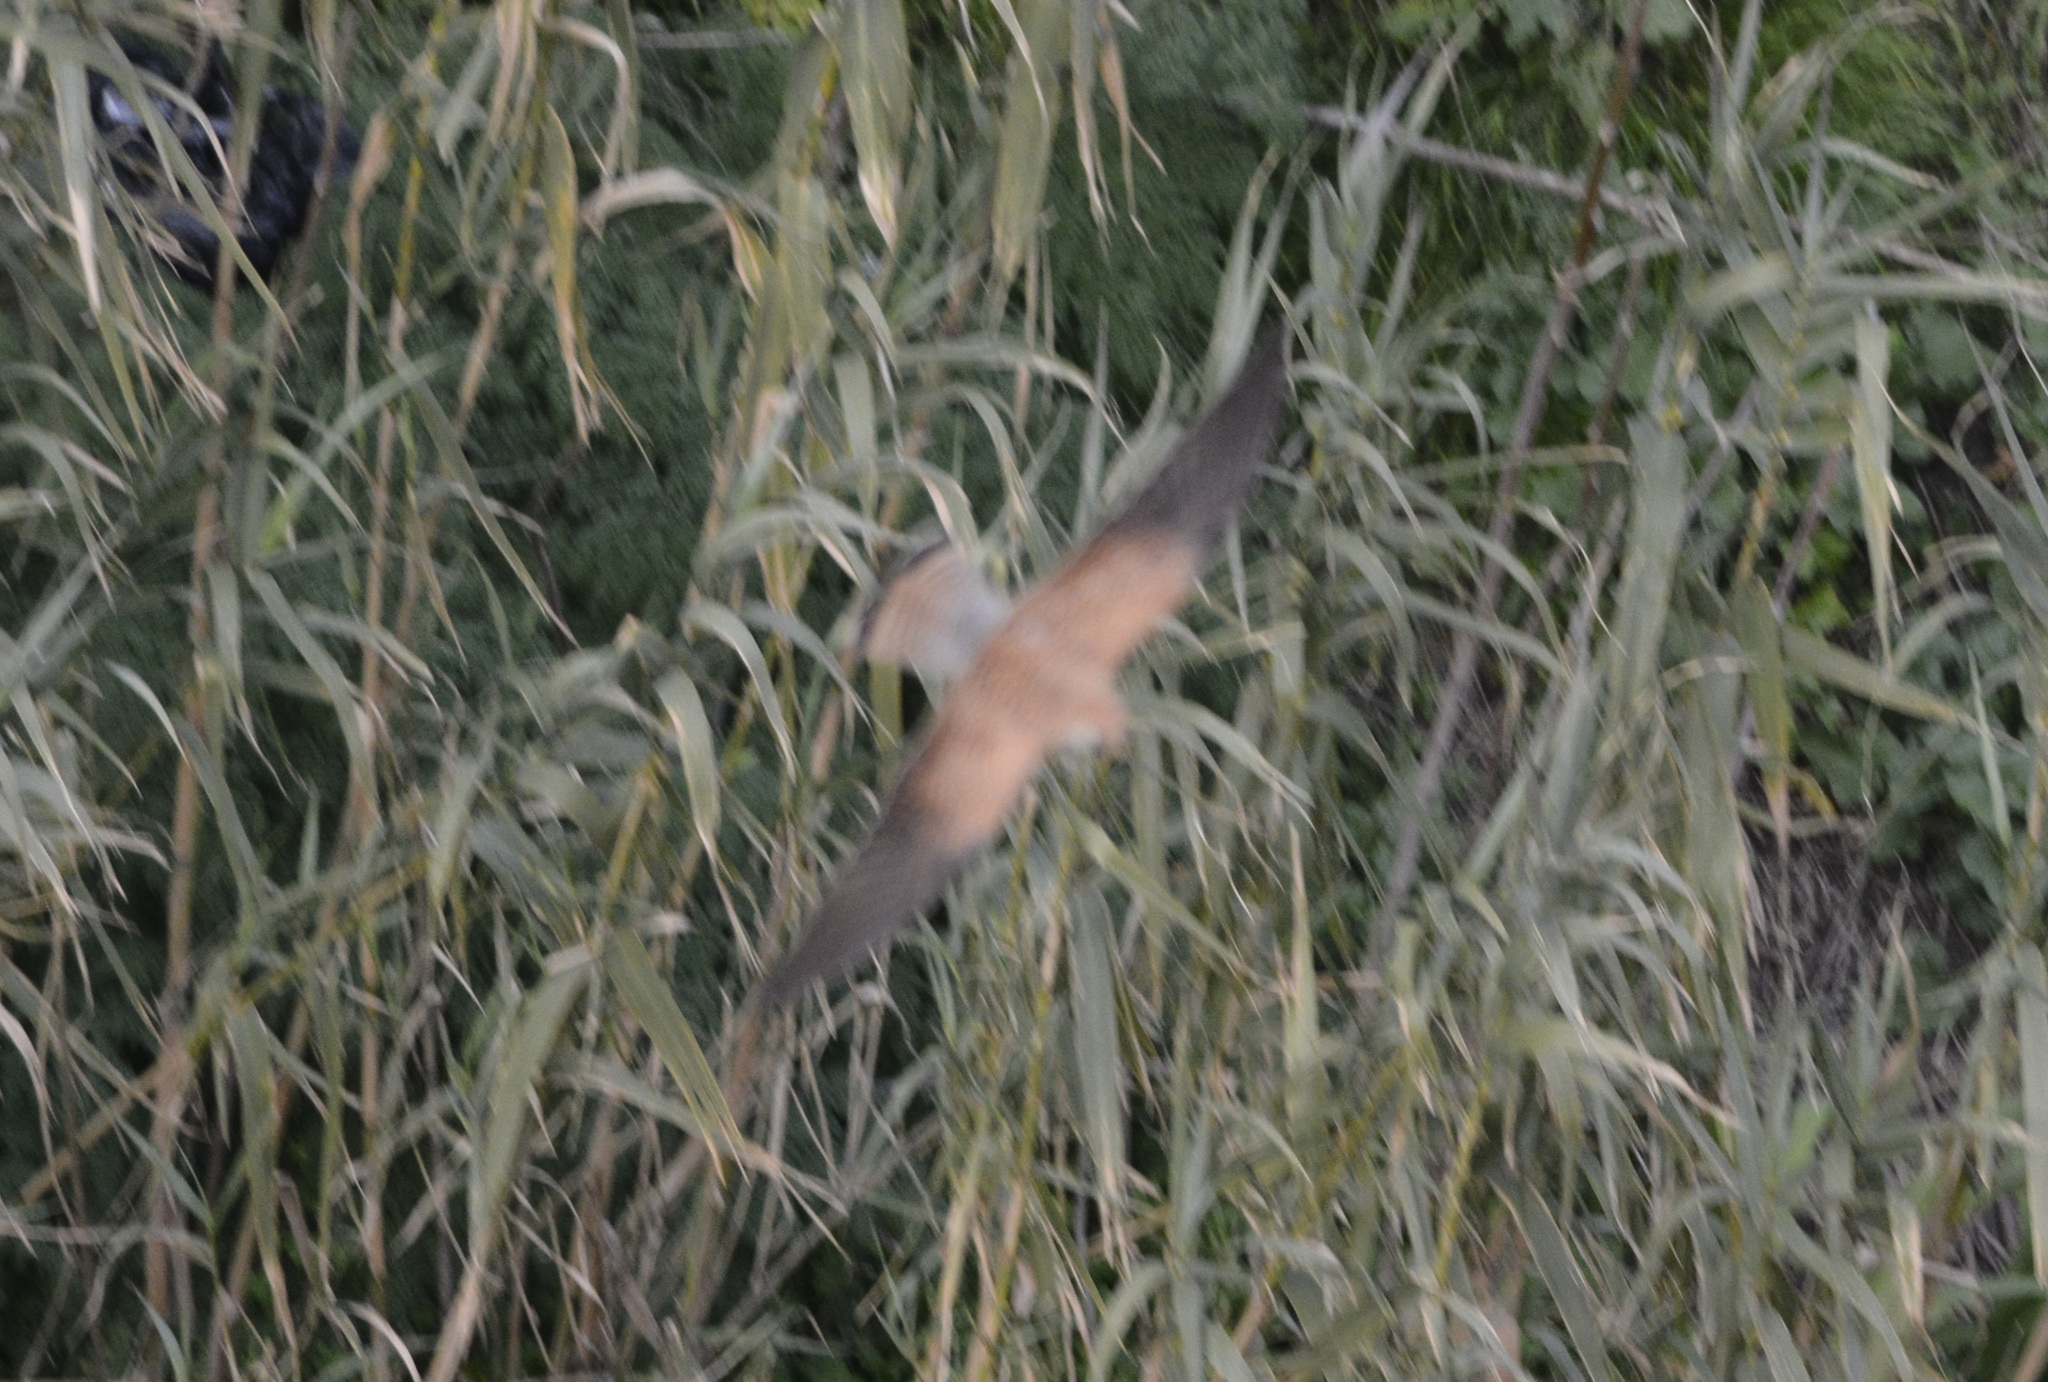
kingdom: Animalia
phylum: Chordata
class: Aves
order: Falconiformes
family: Falconidae
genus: Falco
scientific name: Falco tinnunculus
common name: Common kestrel
